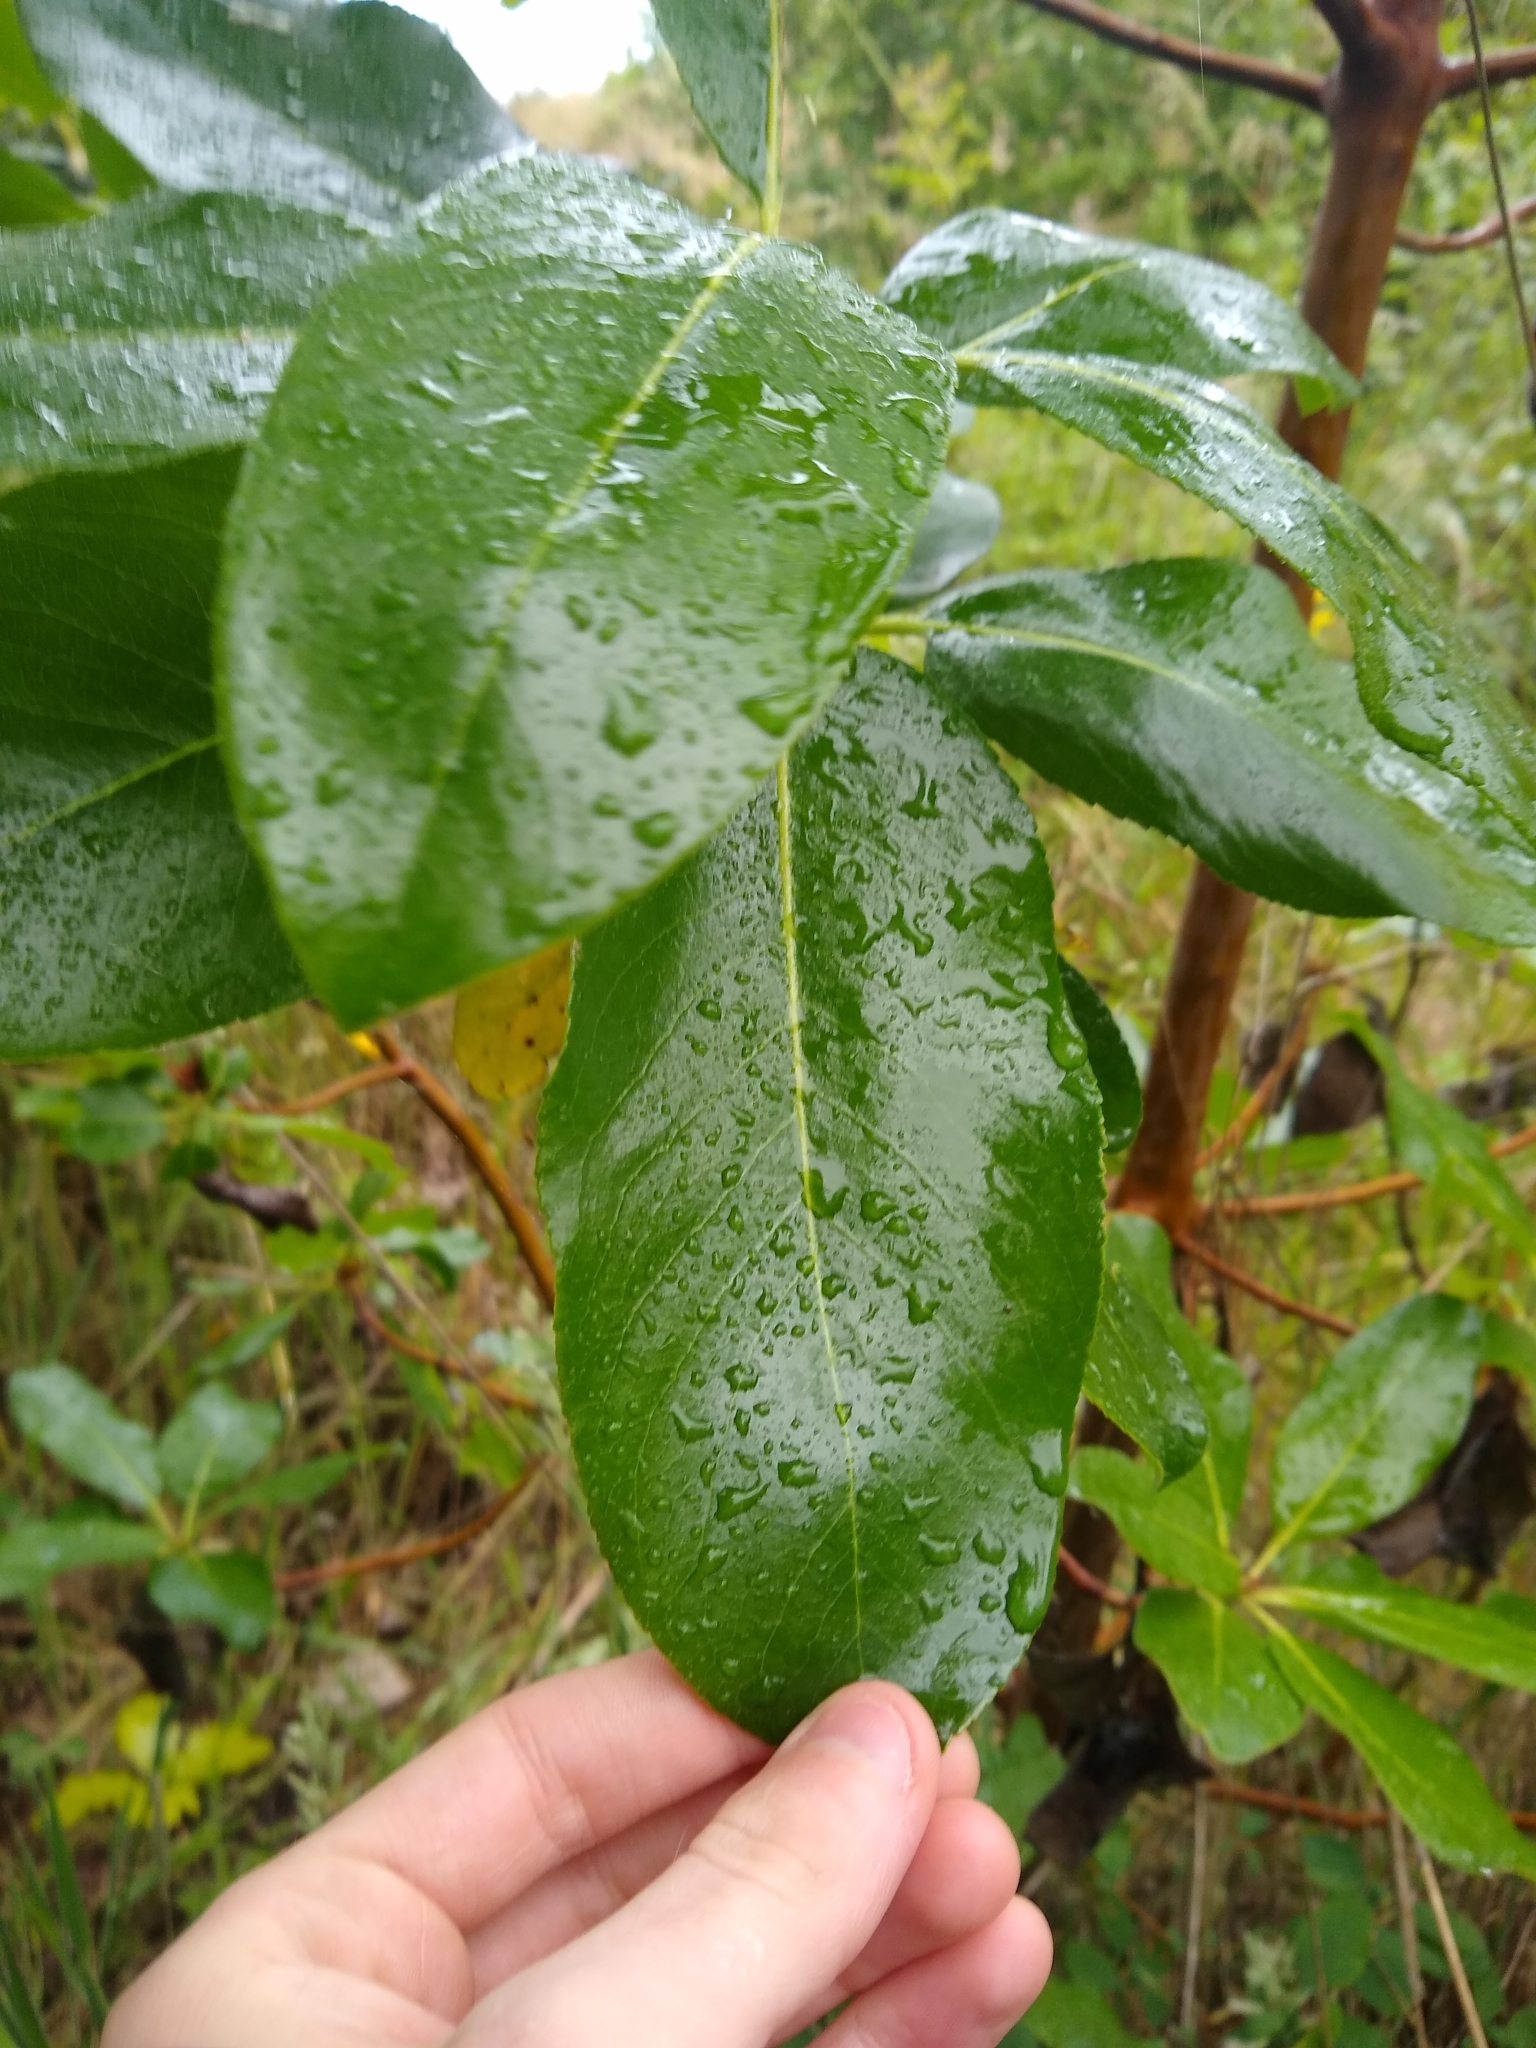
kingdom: Plantae
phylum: Tracheophyta
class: Magnoliopsida
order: Ericales
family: Ericaceae
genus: Arbutus
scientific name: Arbutus menziesii
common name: Pacific madrone
